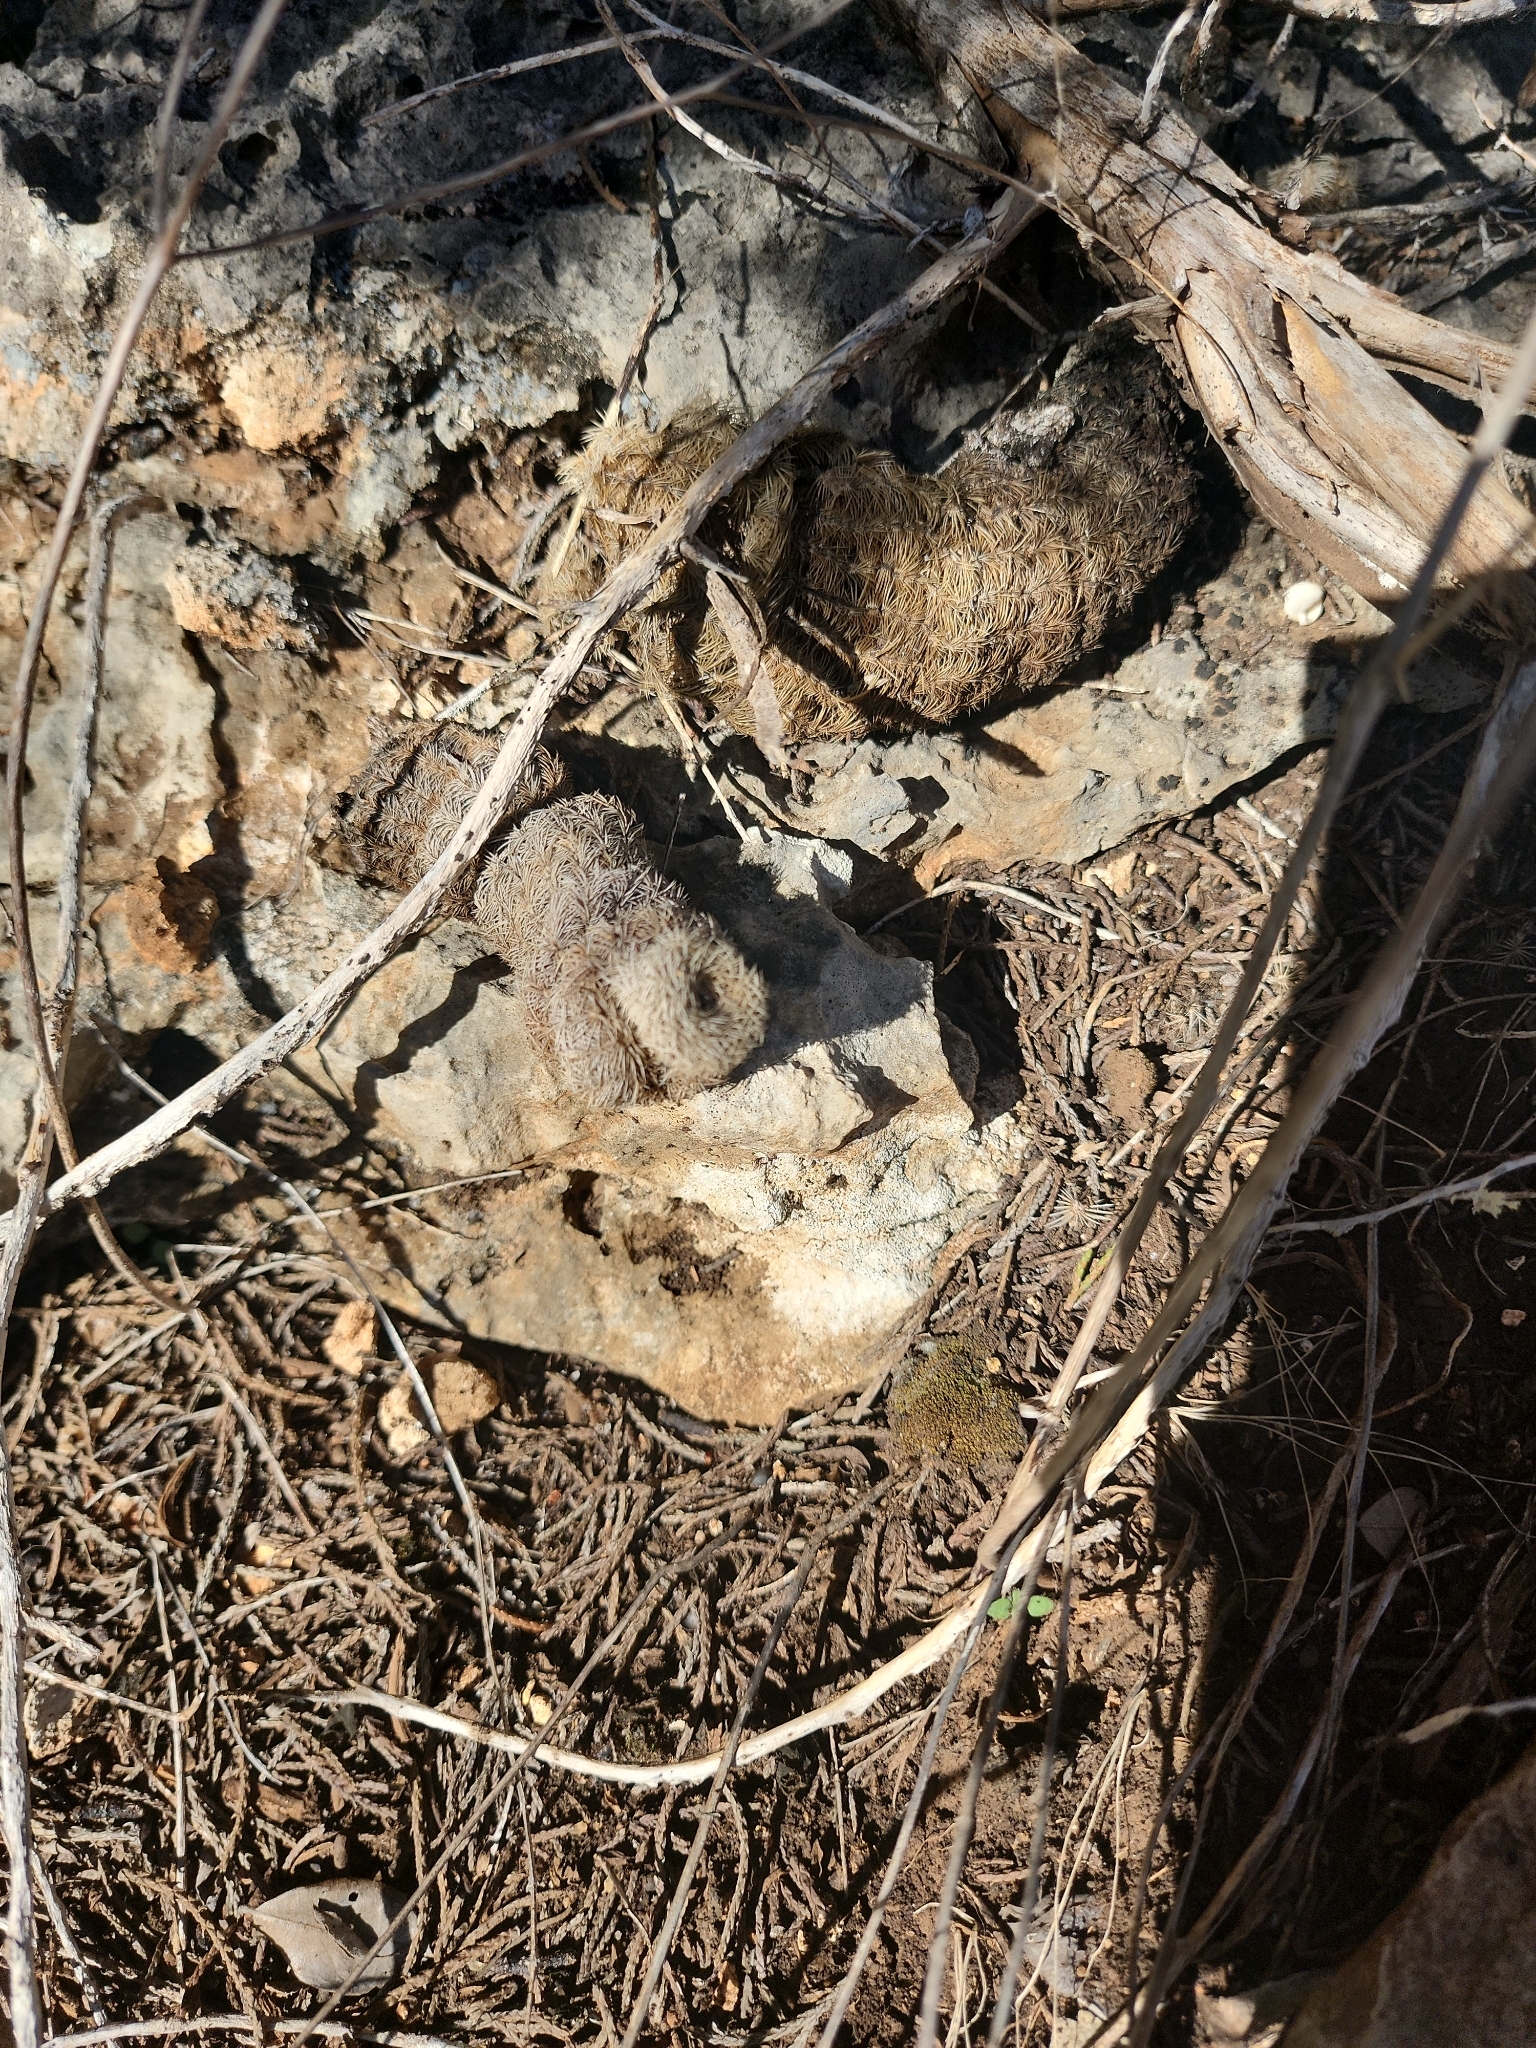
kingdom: Plantae
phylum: Tracheophyta
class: Magnoliopsida
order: Caryophyllales
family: Cactaceae
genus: Echinocereus
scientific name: Echinocereus reichenbachii
